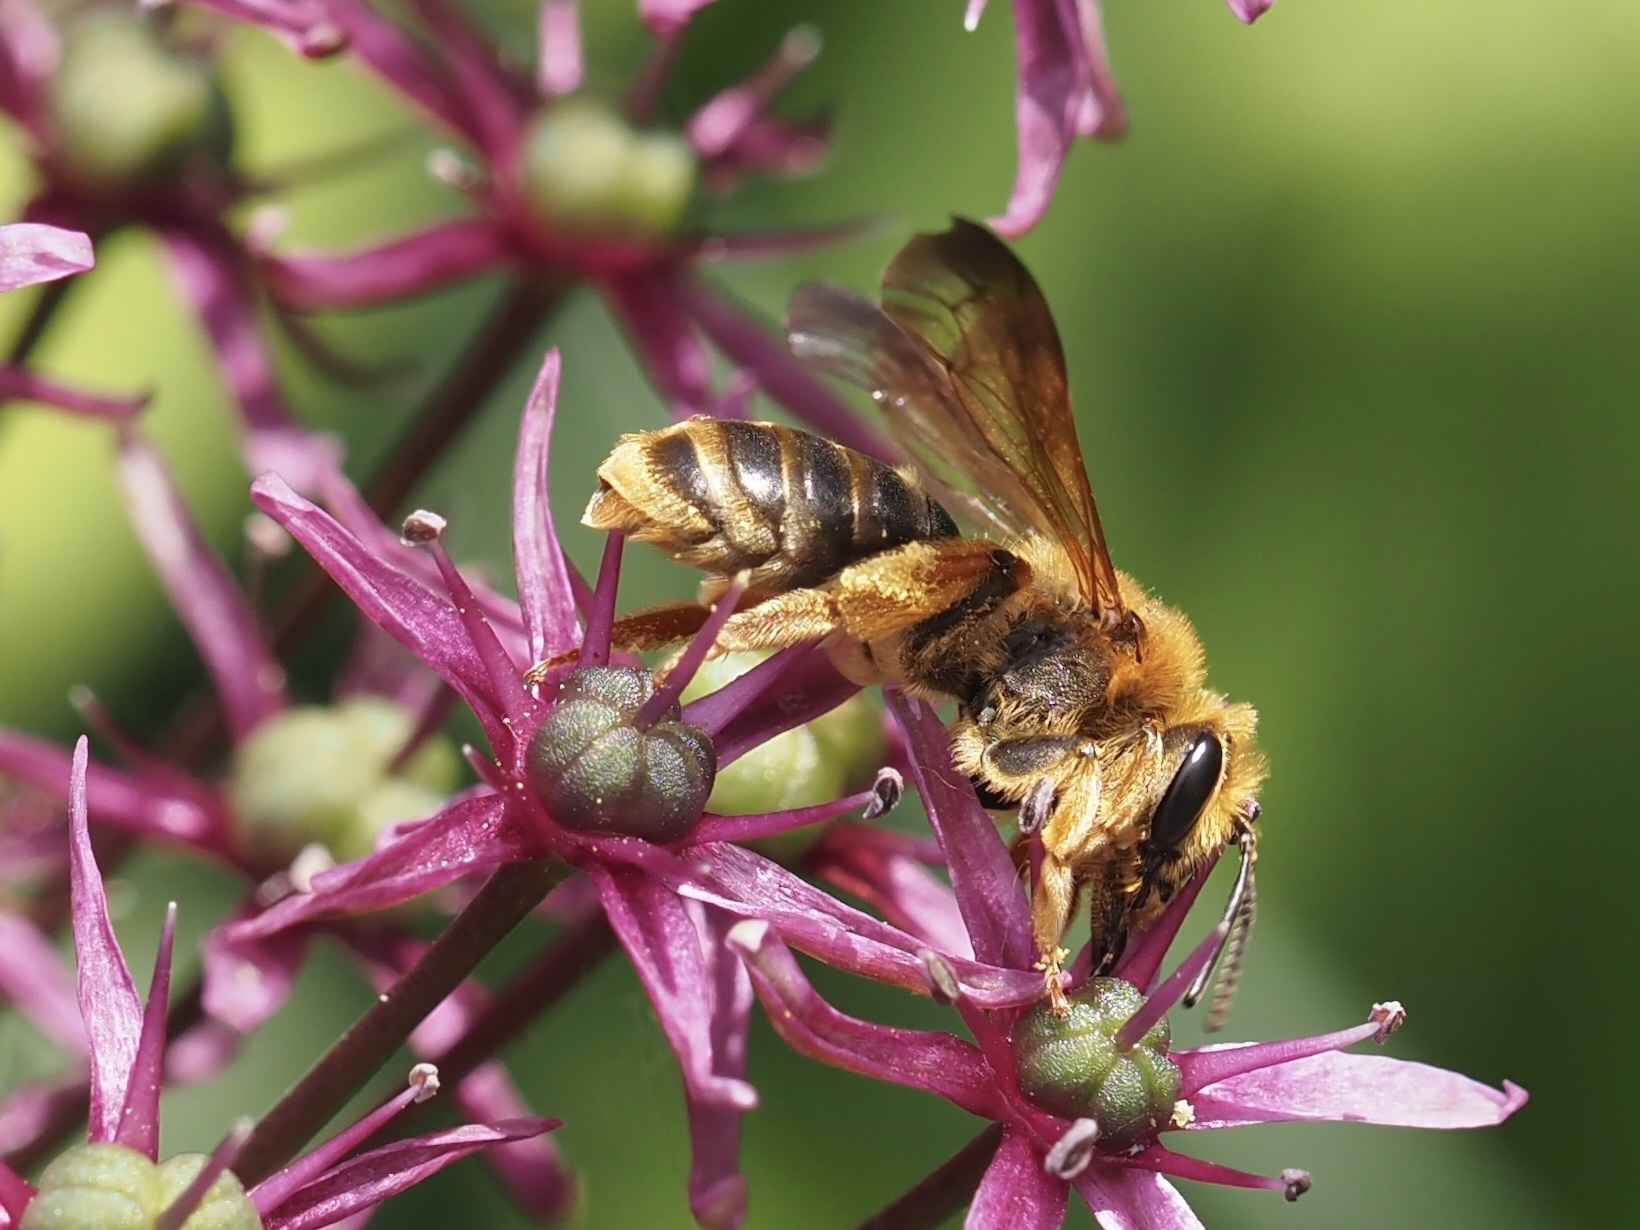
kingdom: Animalia
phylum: Arthropoda
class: Insecta
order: Hymenoptera
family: Andrenidae
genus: Andrena
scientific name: Andrena prunorum
